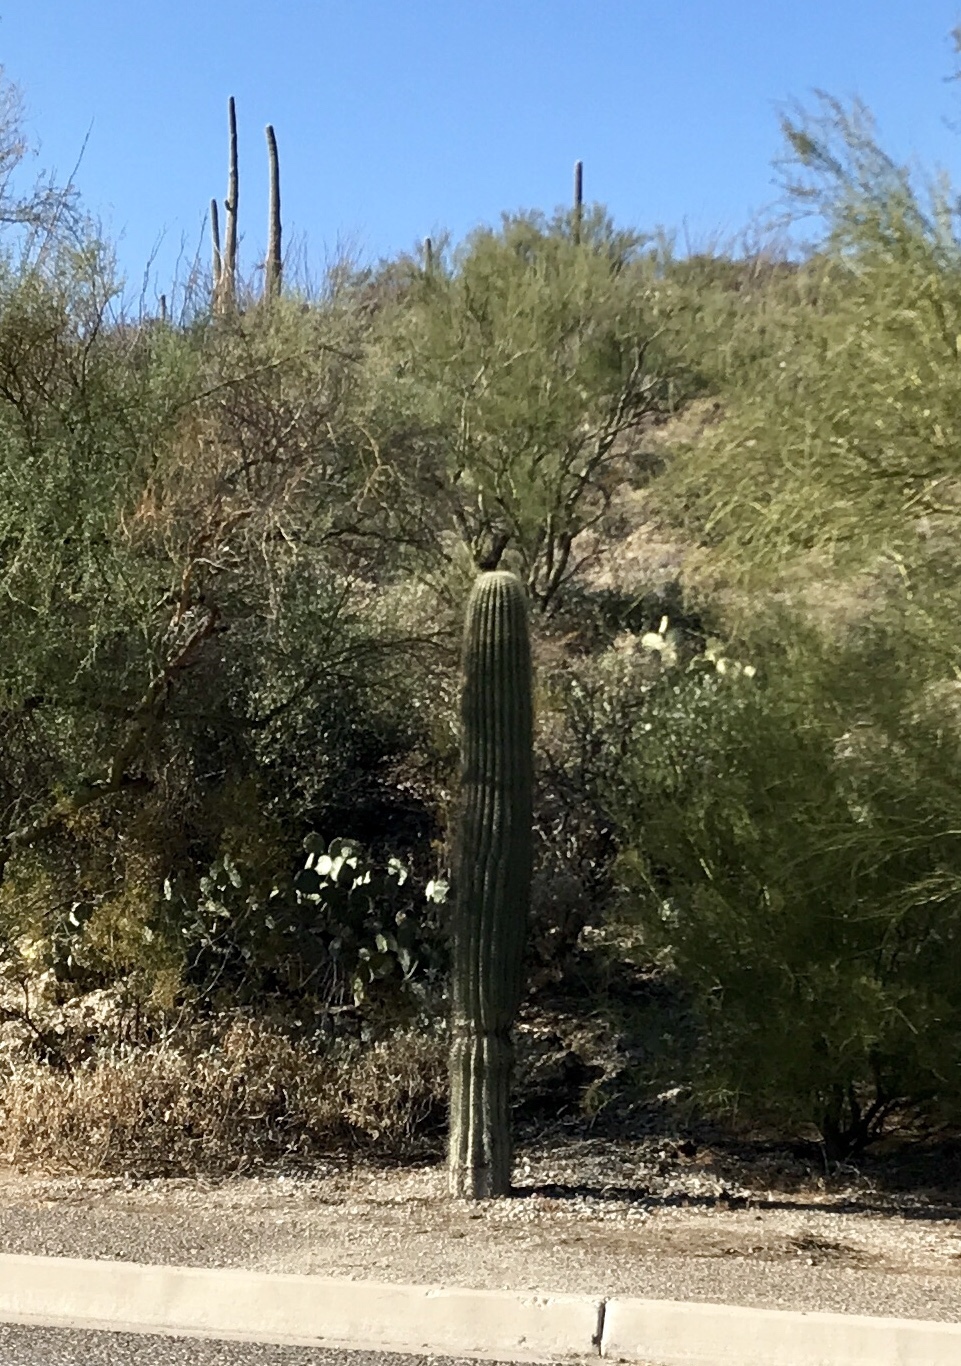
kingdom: Plantae
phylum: Tracheophyta
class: Magnoliopsida
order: Caryophyllales
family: Cactaceae
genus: Carnegiea
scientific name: Carnegiea gigantea
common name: Saguaro
